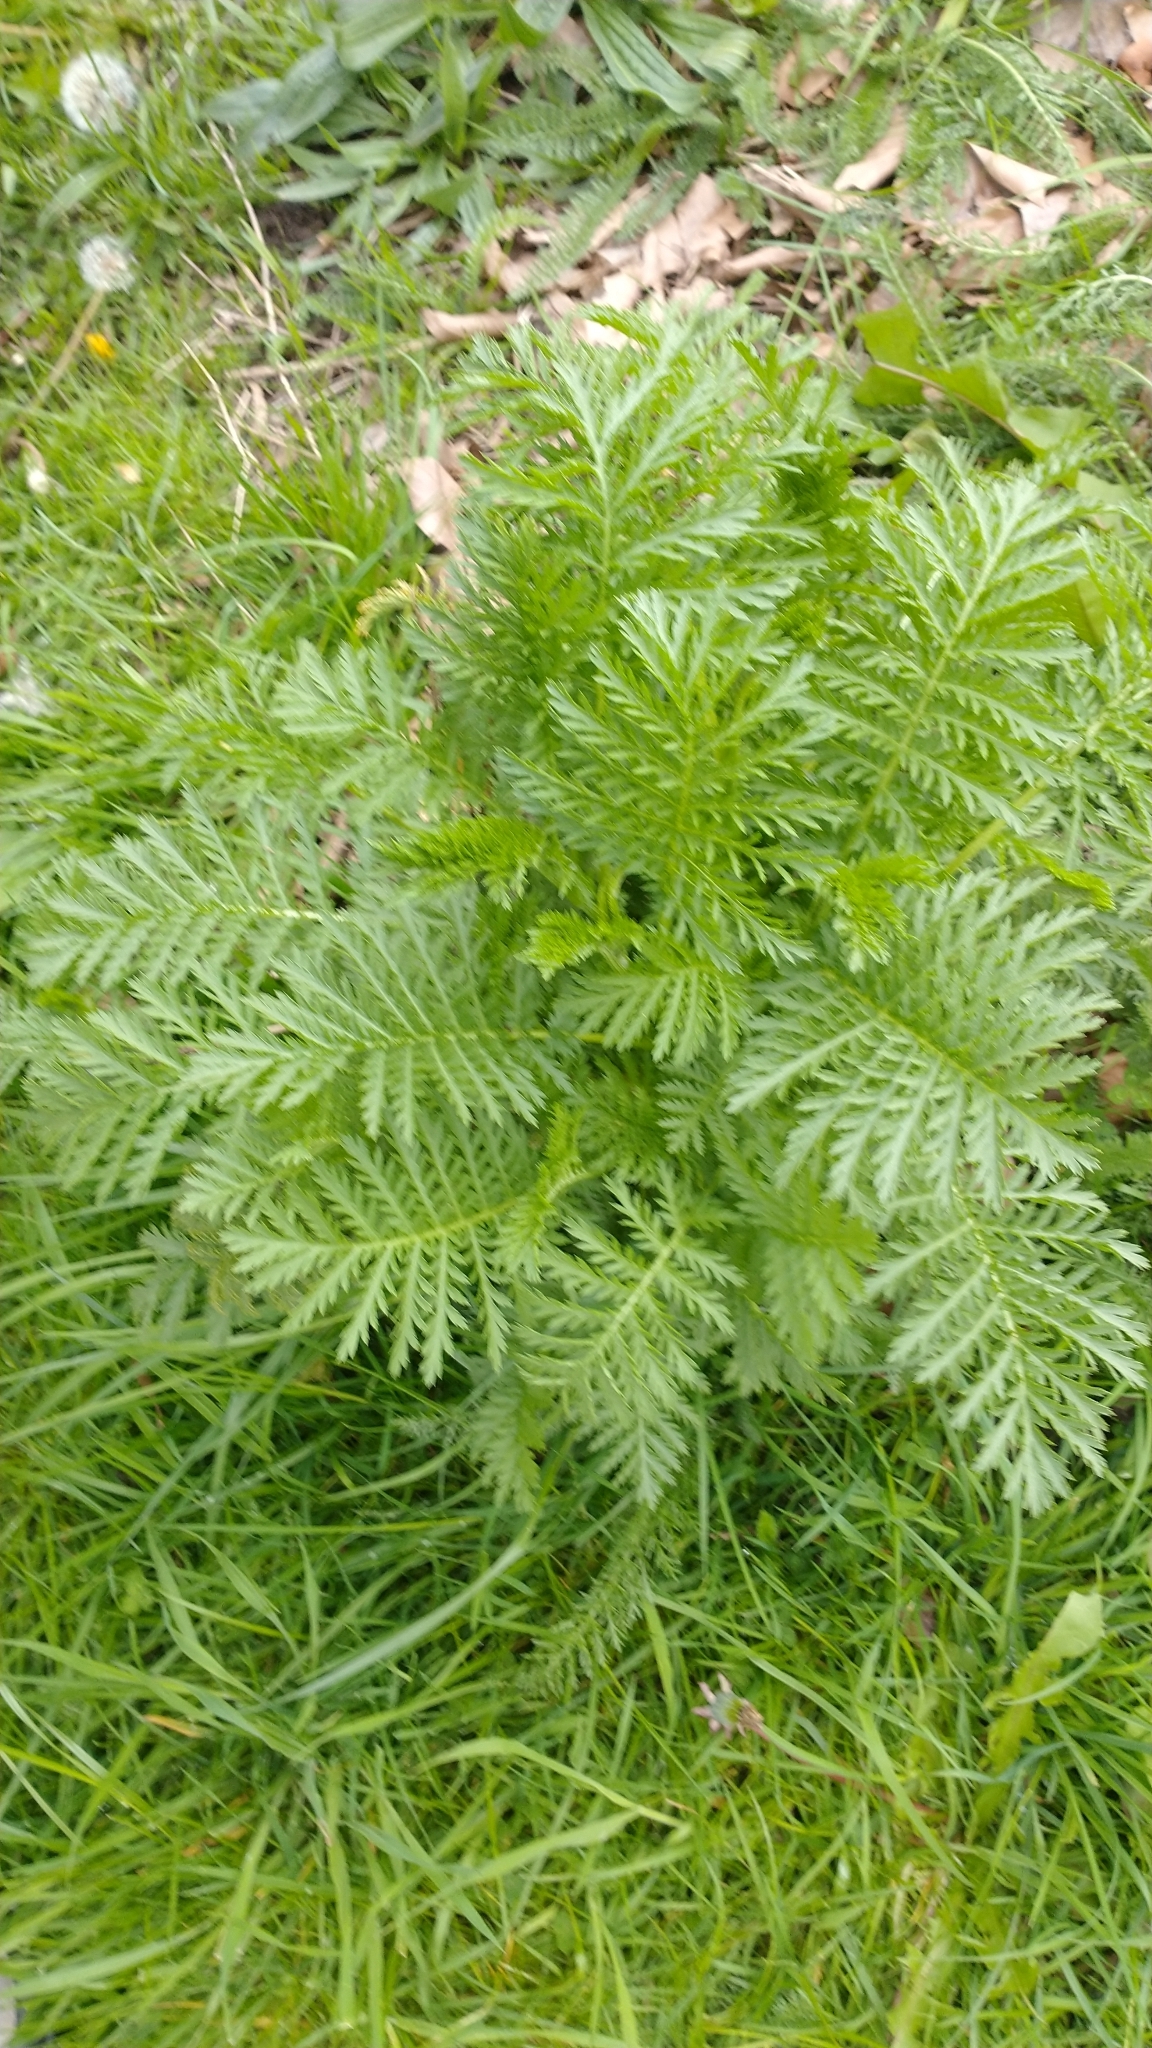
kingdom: Plantae
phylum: Tracheophyta
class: Magnoliopsida
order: Asterales
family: Asteraceae
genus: Tanacetum
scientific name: Tanacetum vulgare
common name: Common tansy
